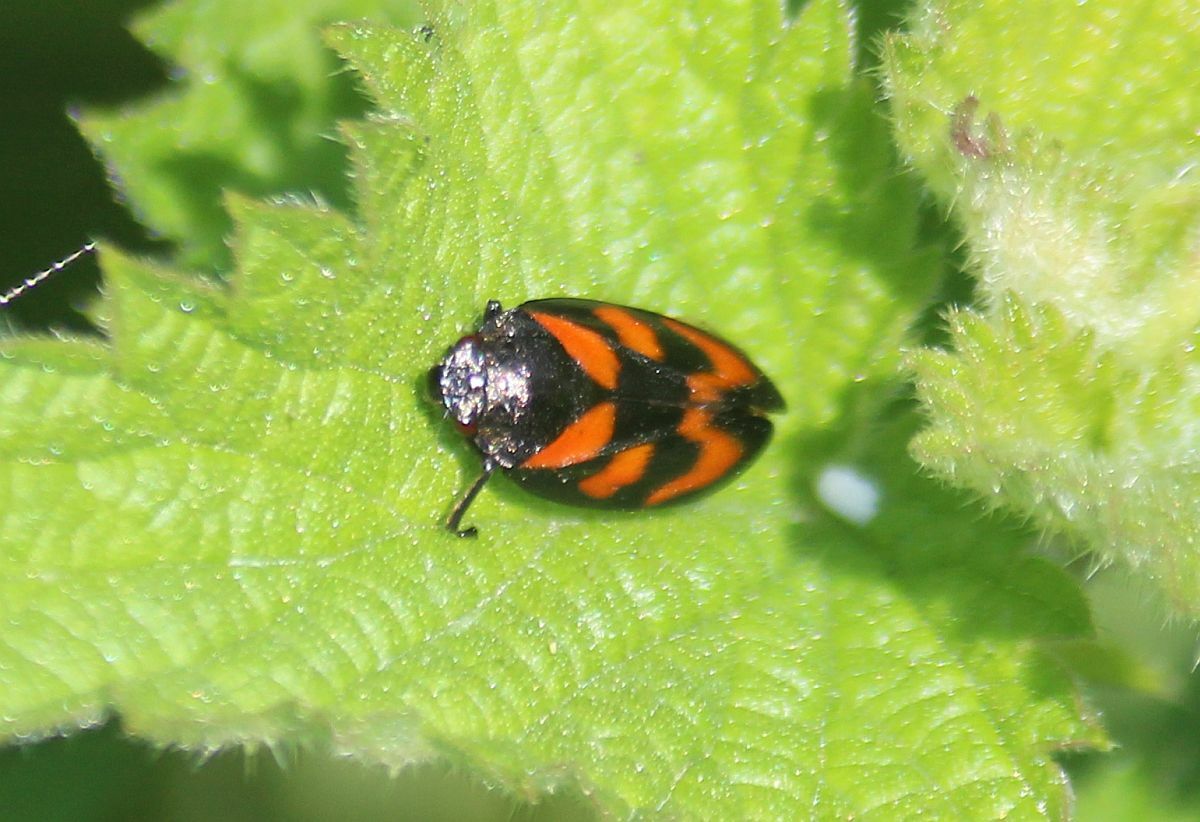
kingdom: Animalia
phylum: Arthropoda
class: Insecta
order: Hemiptera
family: Cercopidae
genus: Cercopis
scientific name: Cercopis vulnerata
